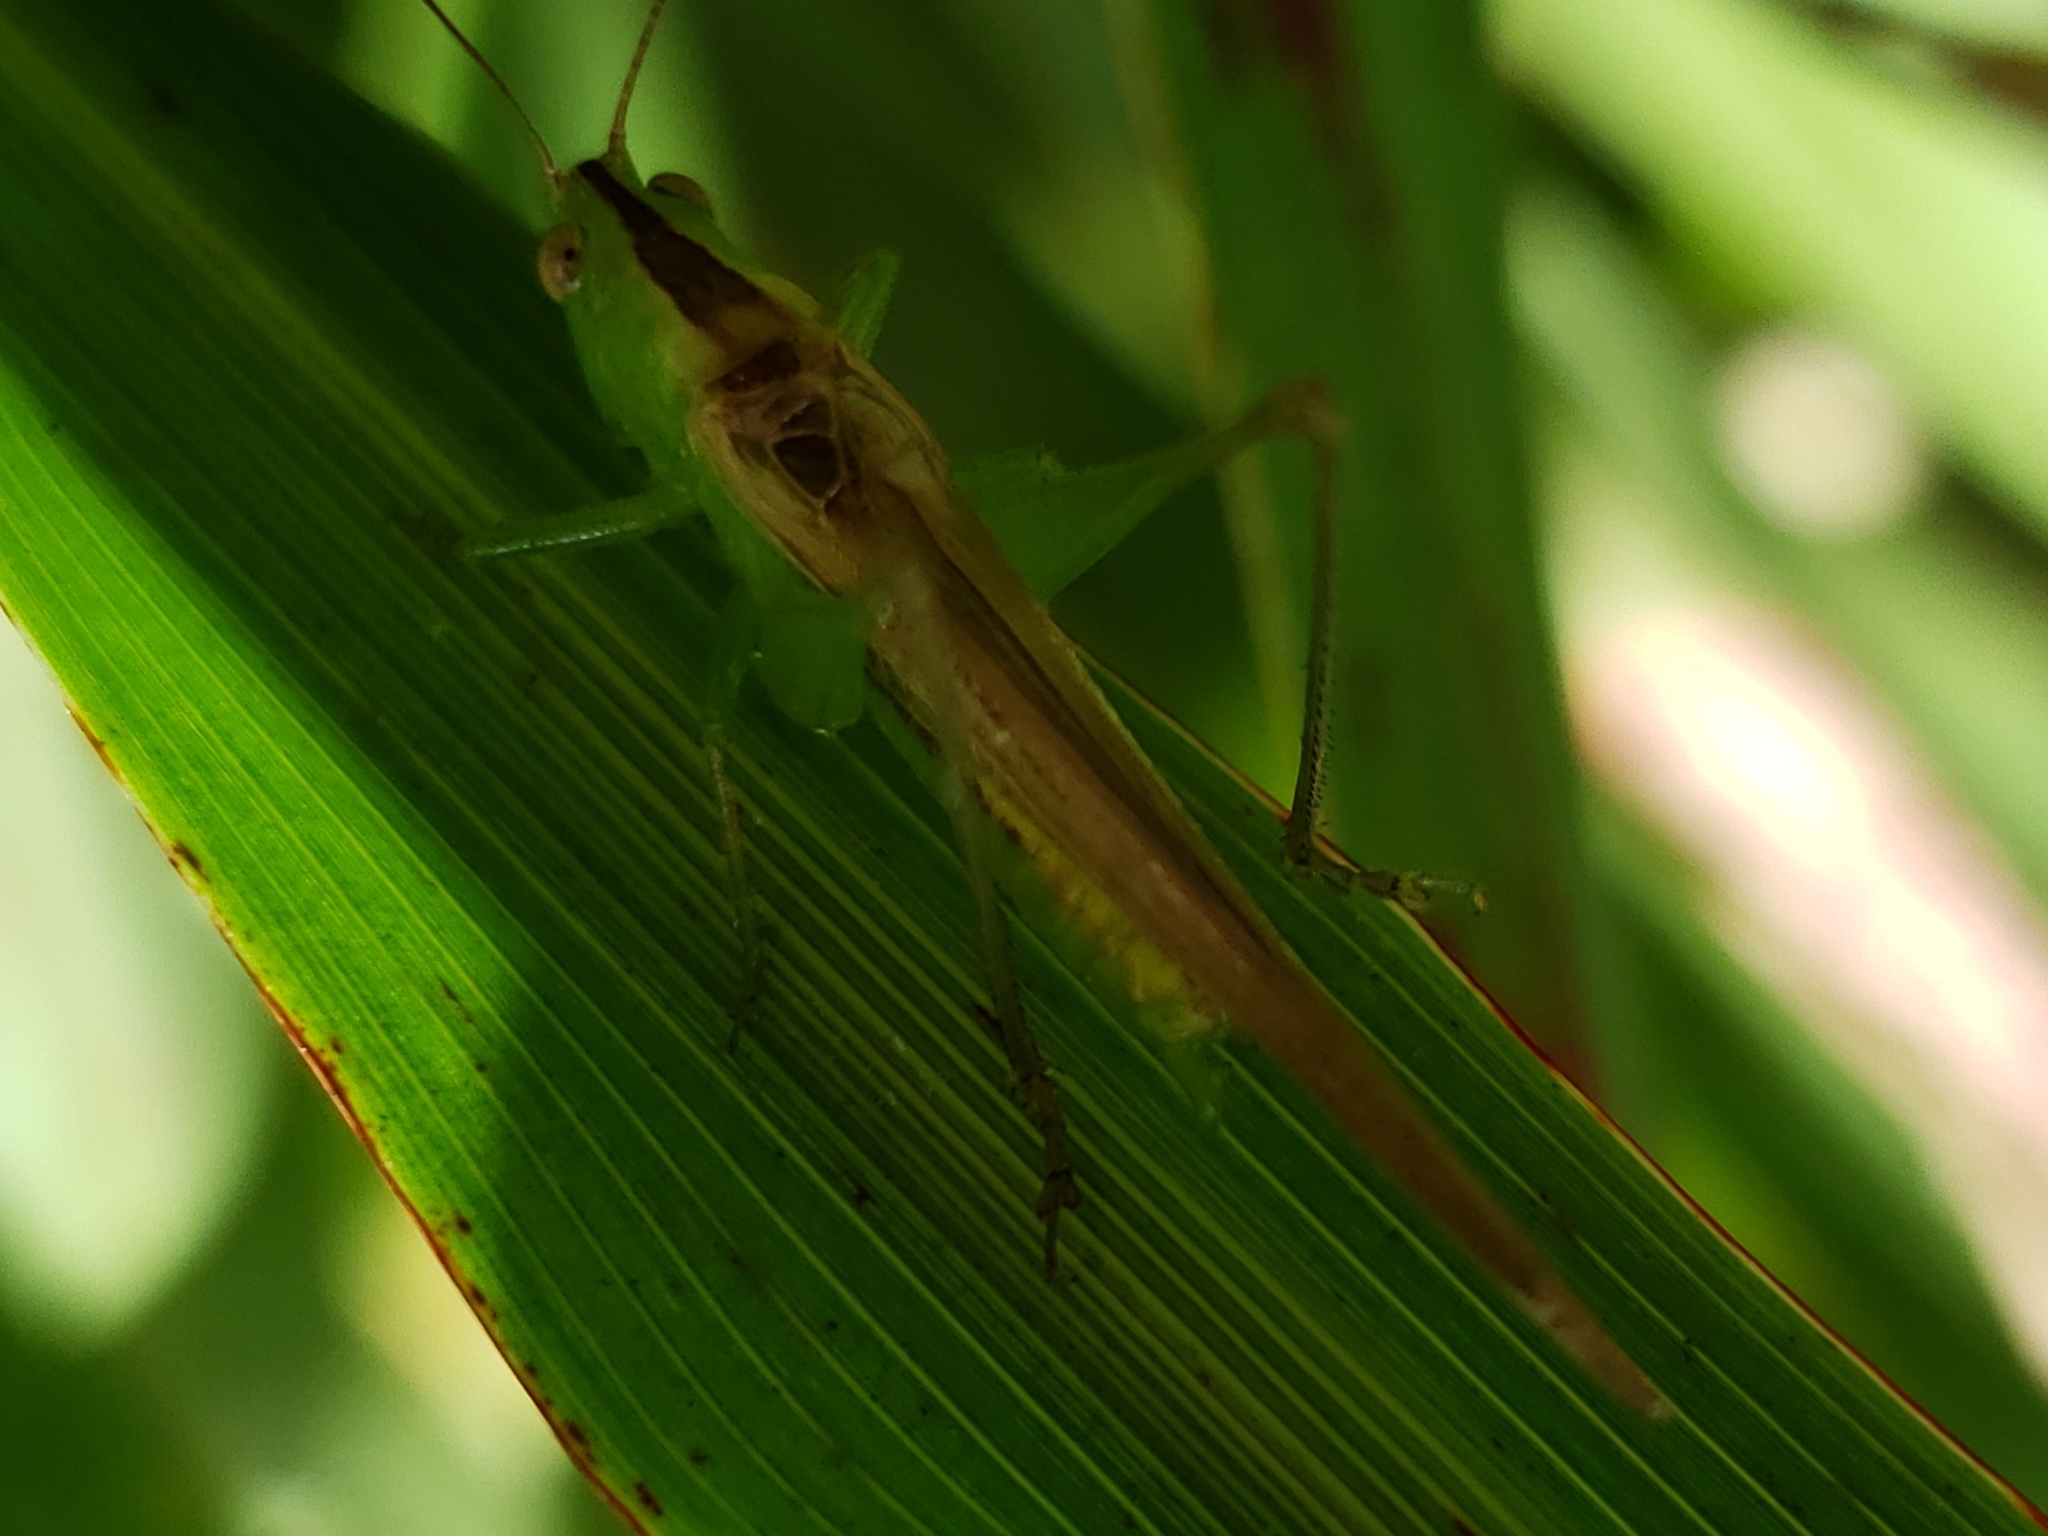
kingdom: Animalia
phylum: Arthropoda
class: Insecta
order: Orthoptera
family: Tettigoniidae
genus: Conocephalus
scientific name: Conocephalus fasciatus
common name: Slender meadow katydid
